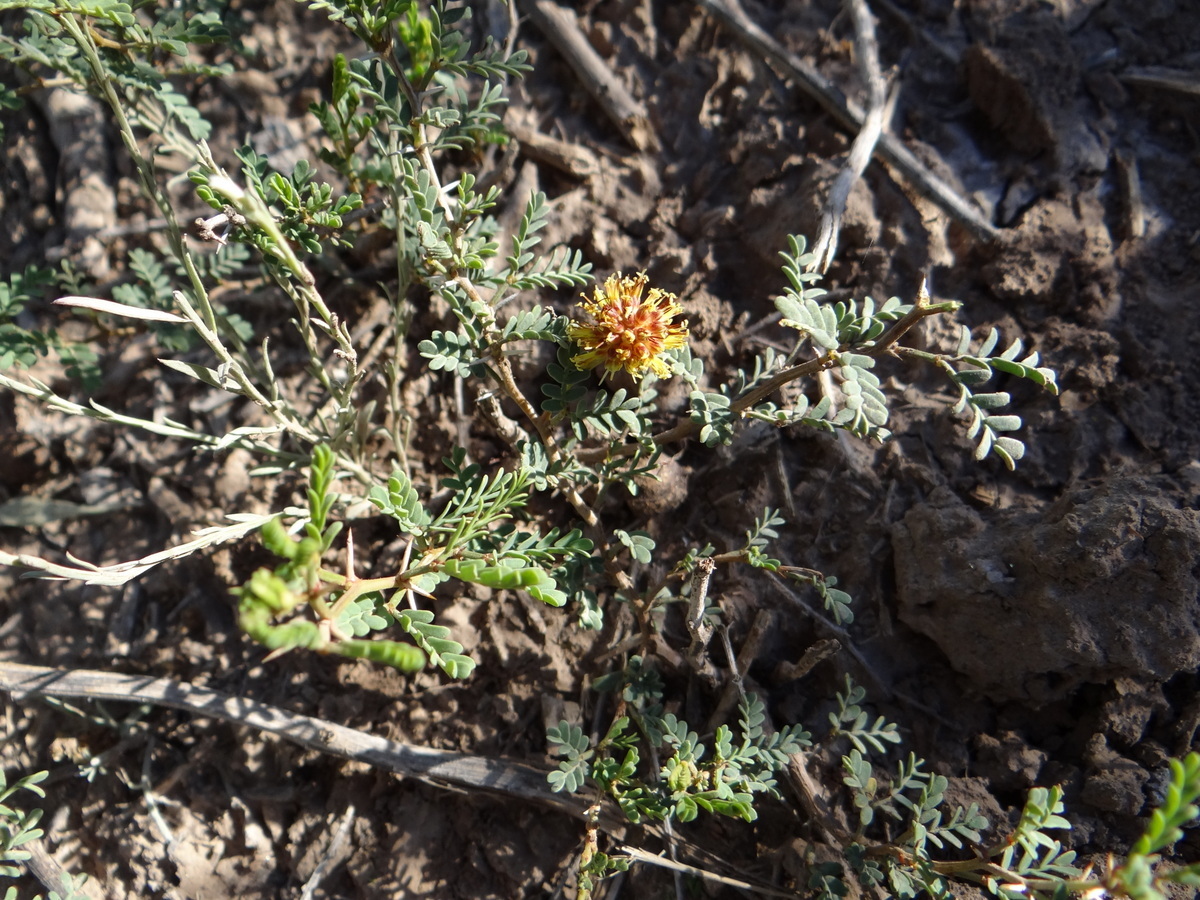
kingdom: Plantae
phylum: Tracheophyta
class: Magnoliopsida
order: Fabales
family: Fabaceae
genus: Prosopis
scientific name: Prosopis strombulifera
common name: Creeping mesquite
